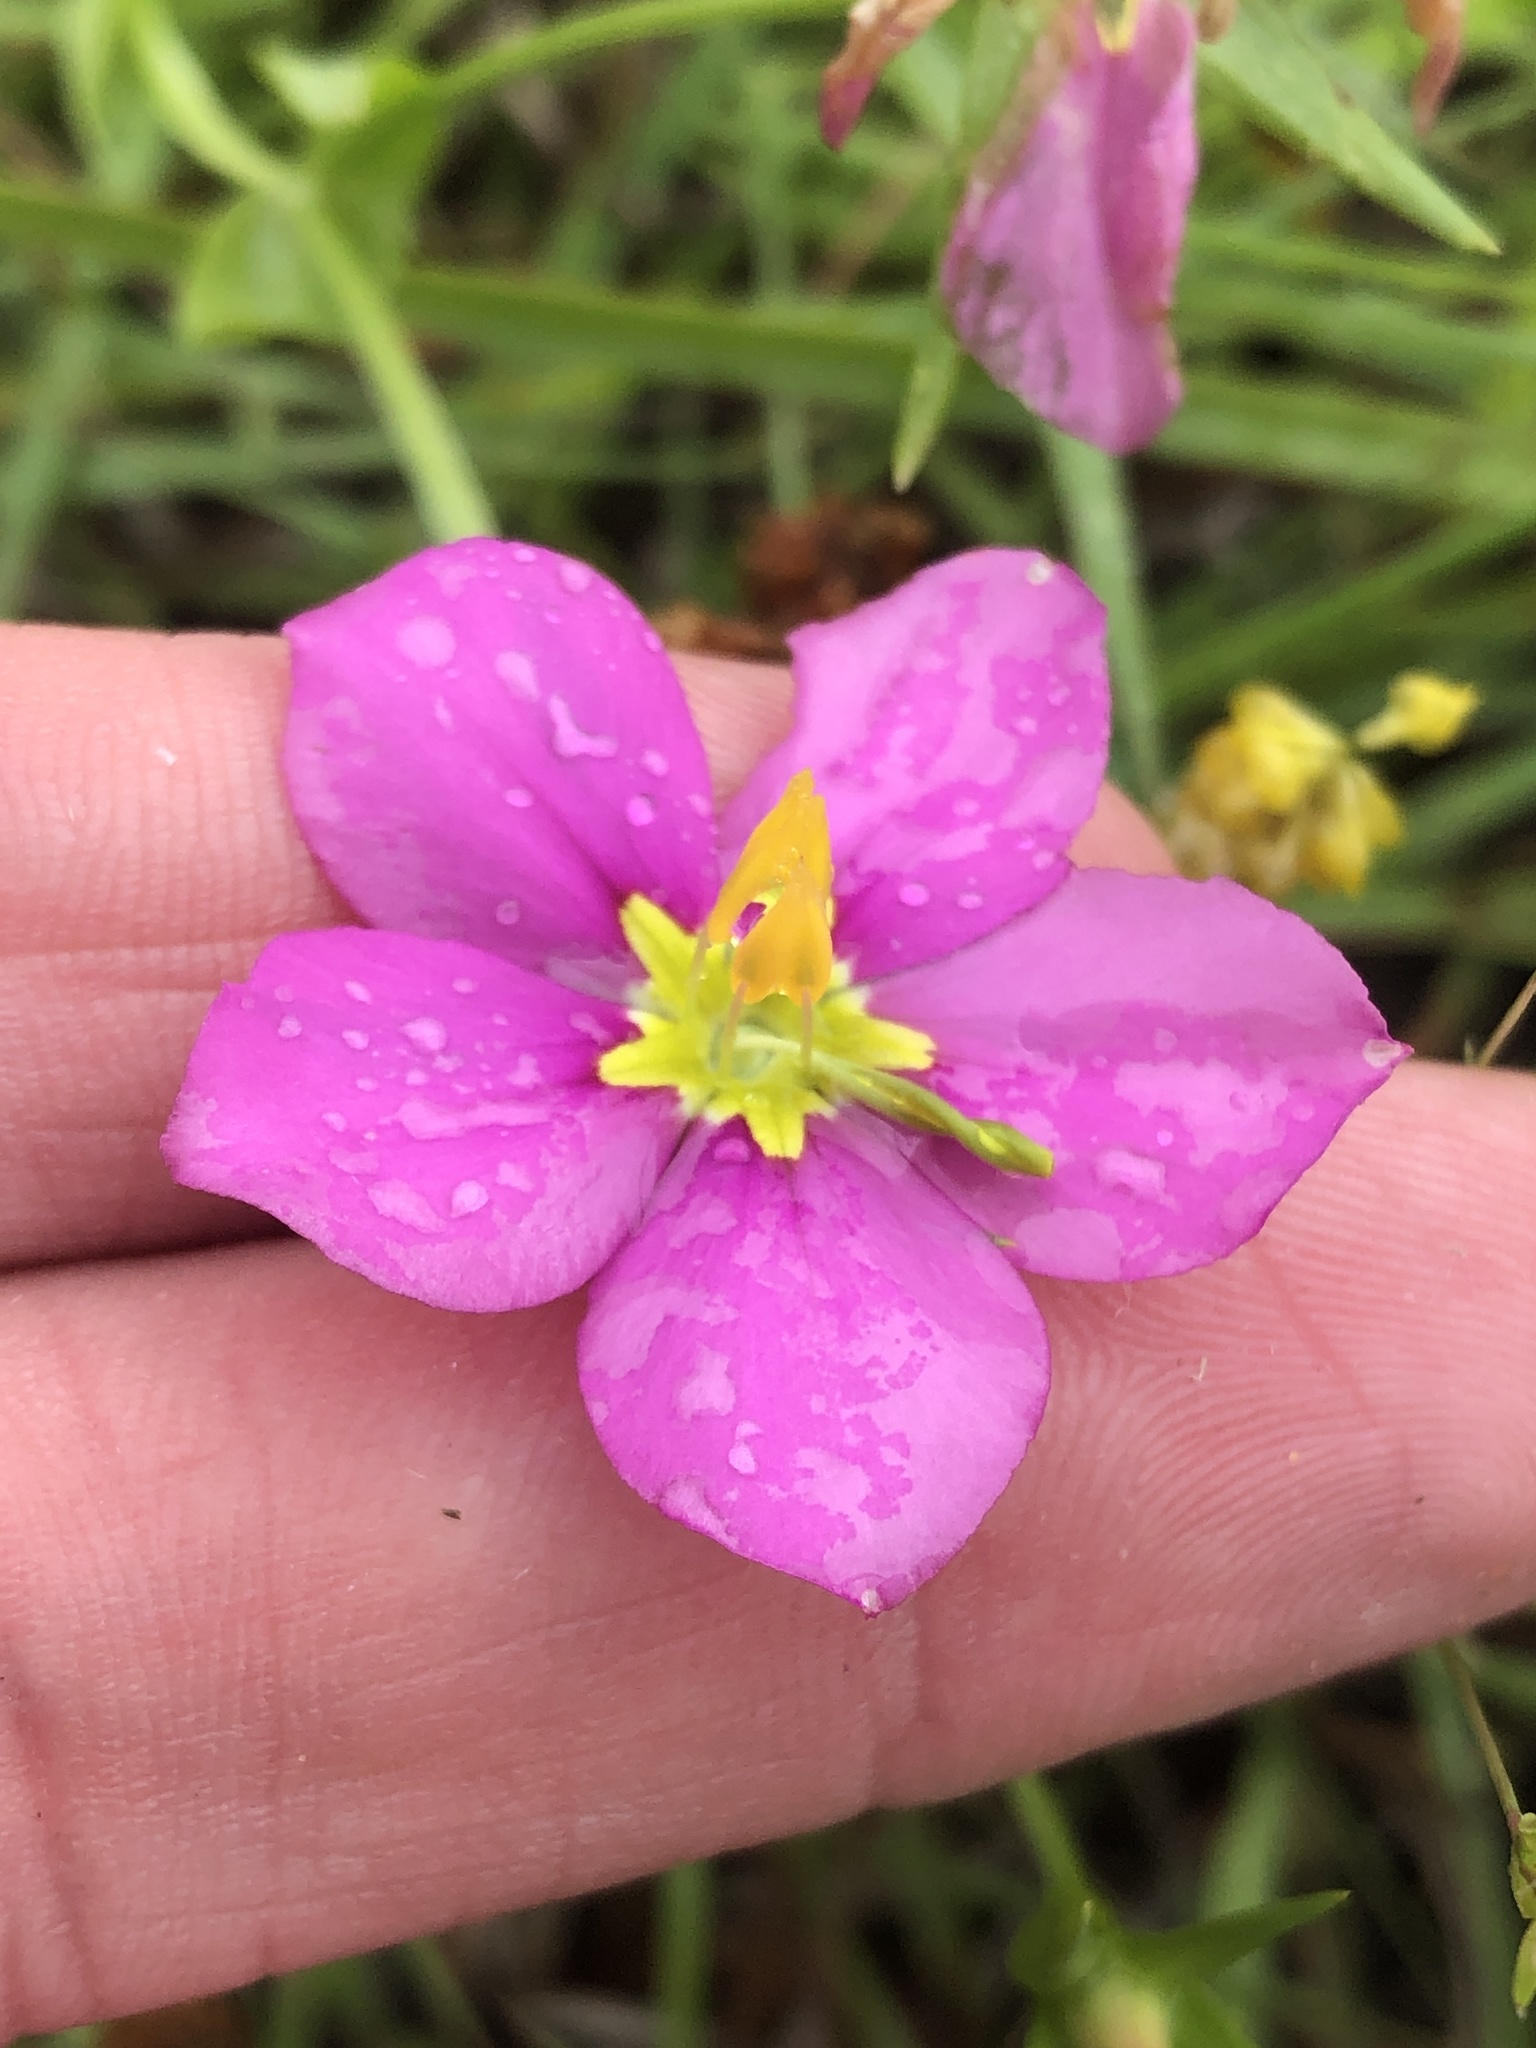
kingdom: Plantae
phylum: Tracheophyta
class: Magnoliopsida
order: Gentianales
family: Gentianaceae
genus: Sabatia
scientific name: Sabatia campestris
